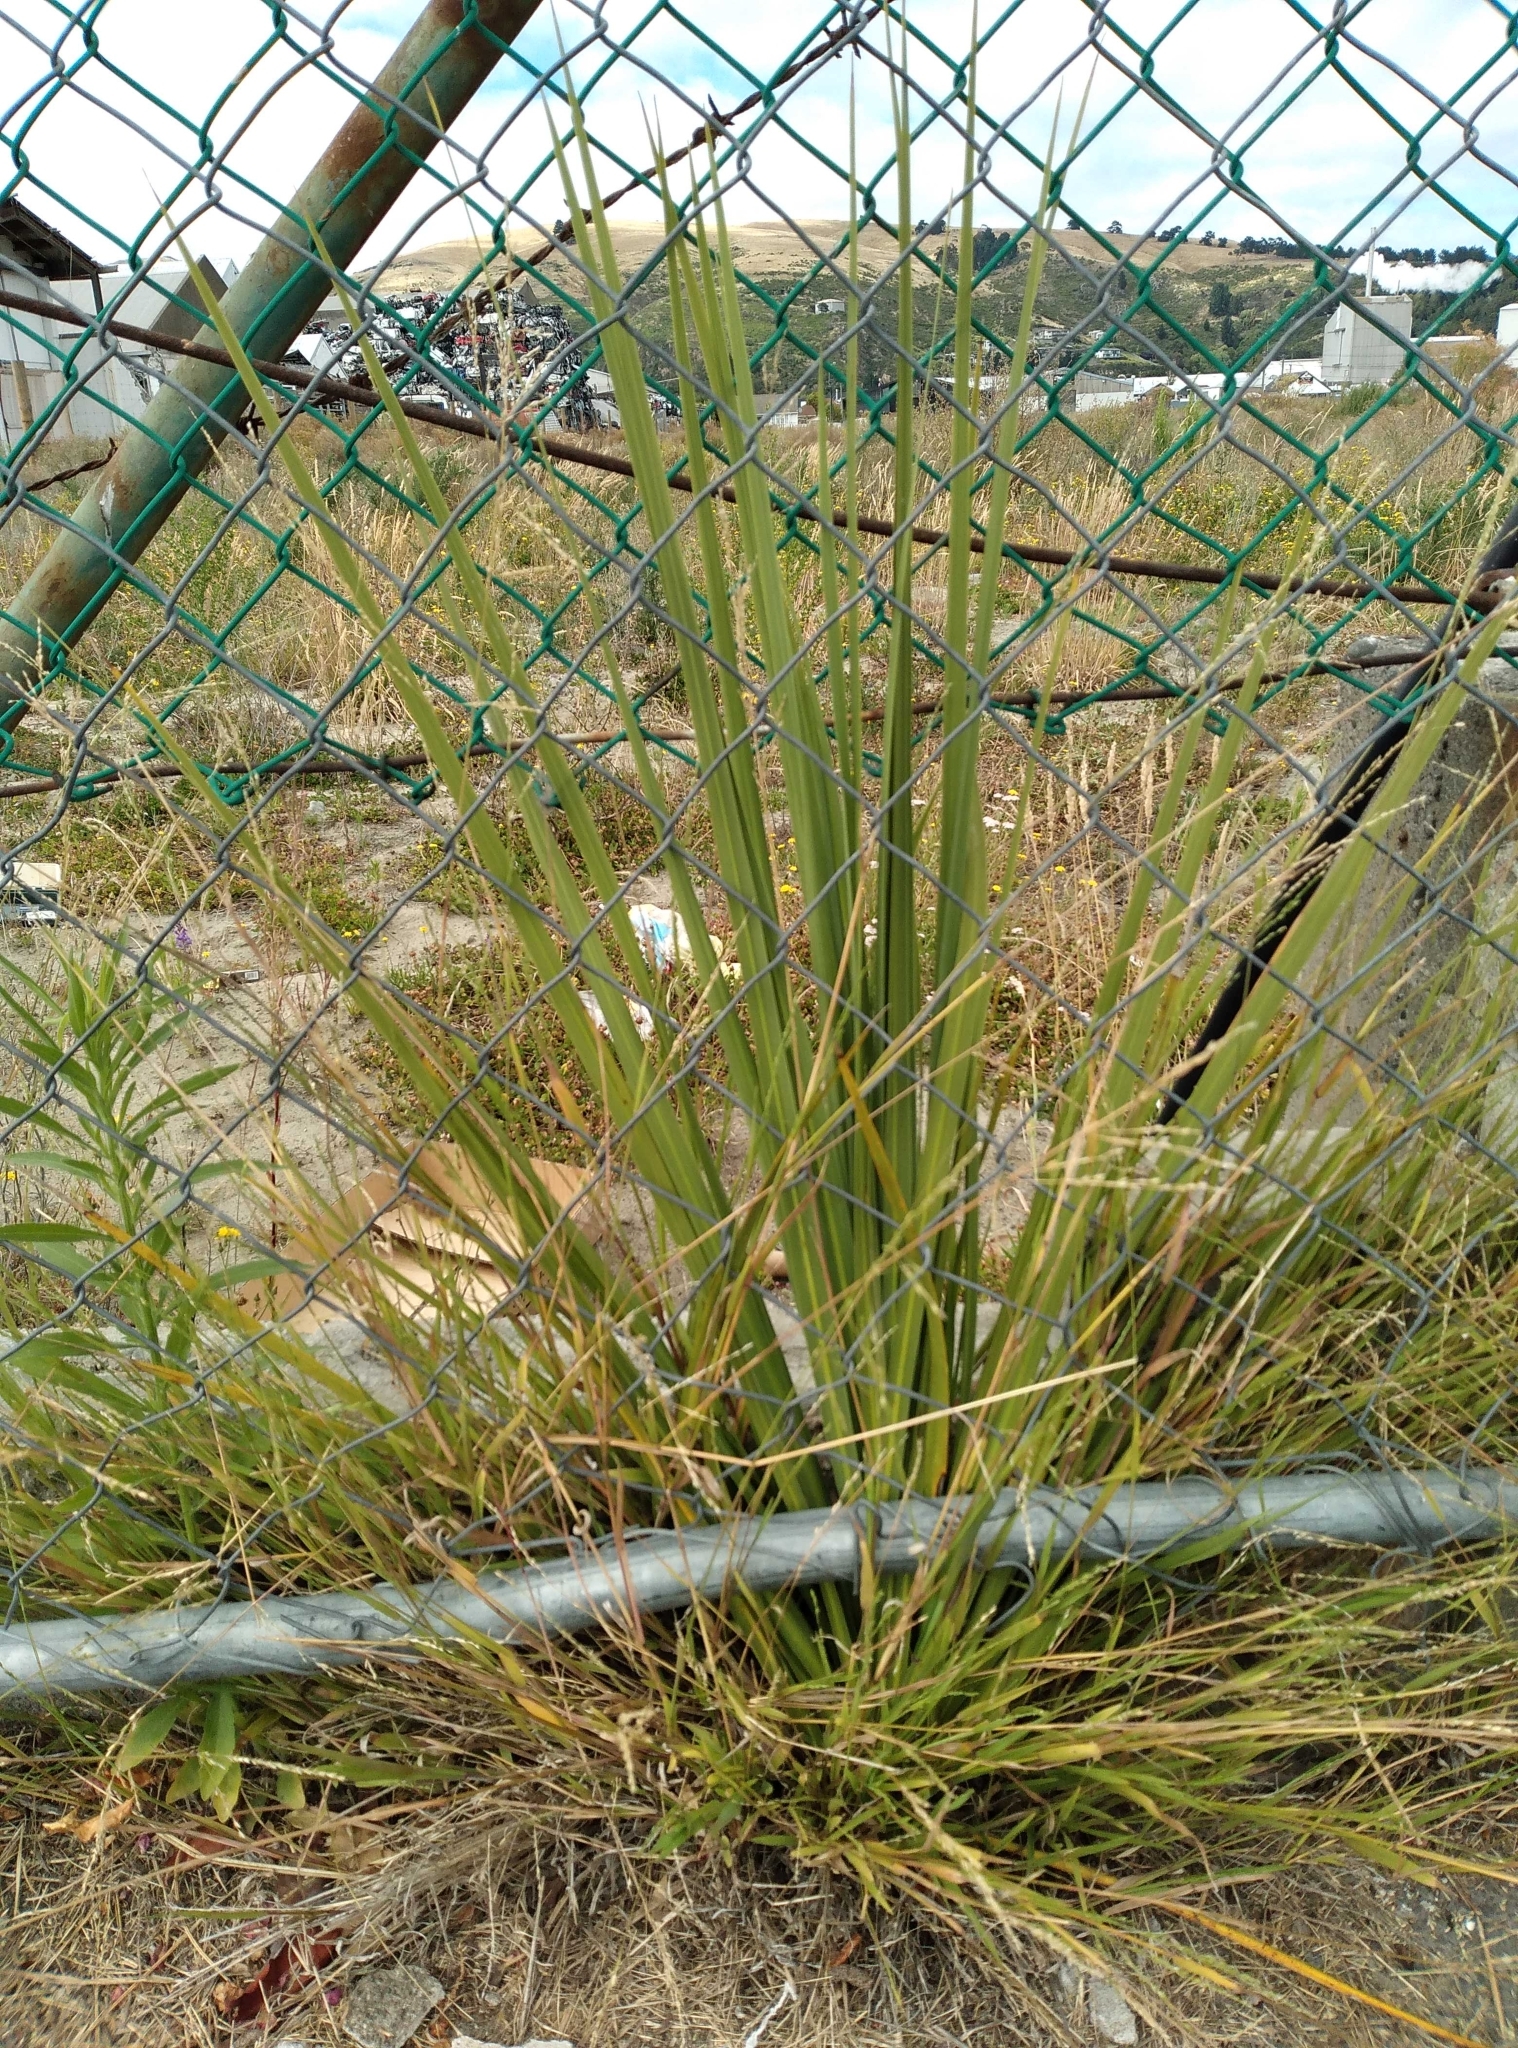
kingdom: Plantae
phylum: Tracheophyta
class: Liliopsida
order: Asparagales
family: Asparagaceae
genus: Cordyline
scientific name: Cordyline australis
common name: Cabbage-palm
